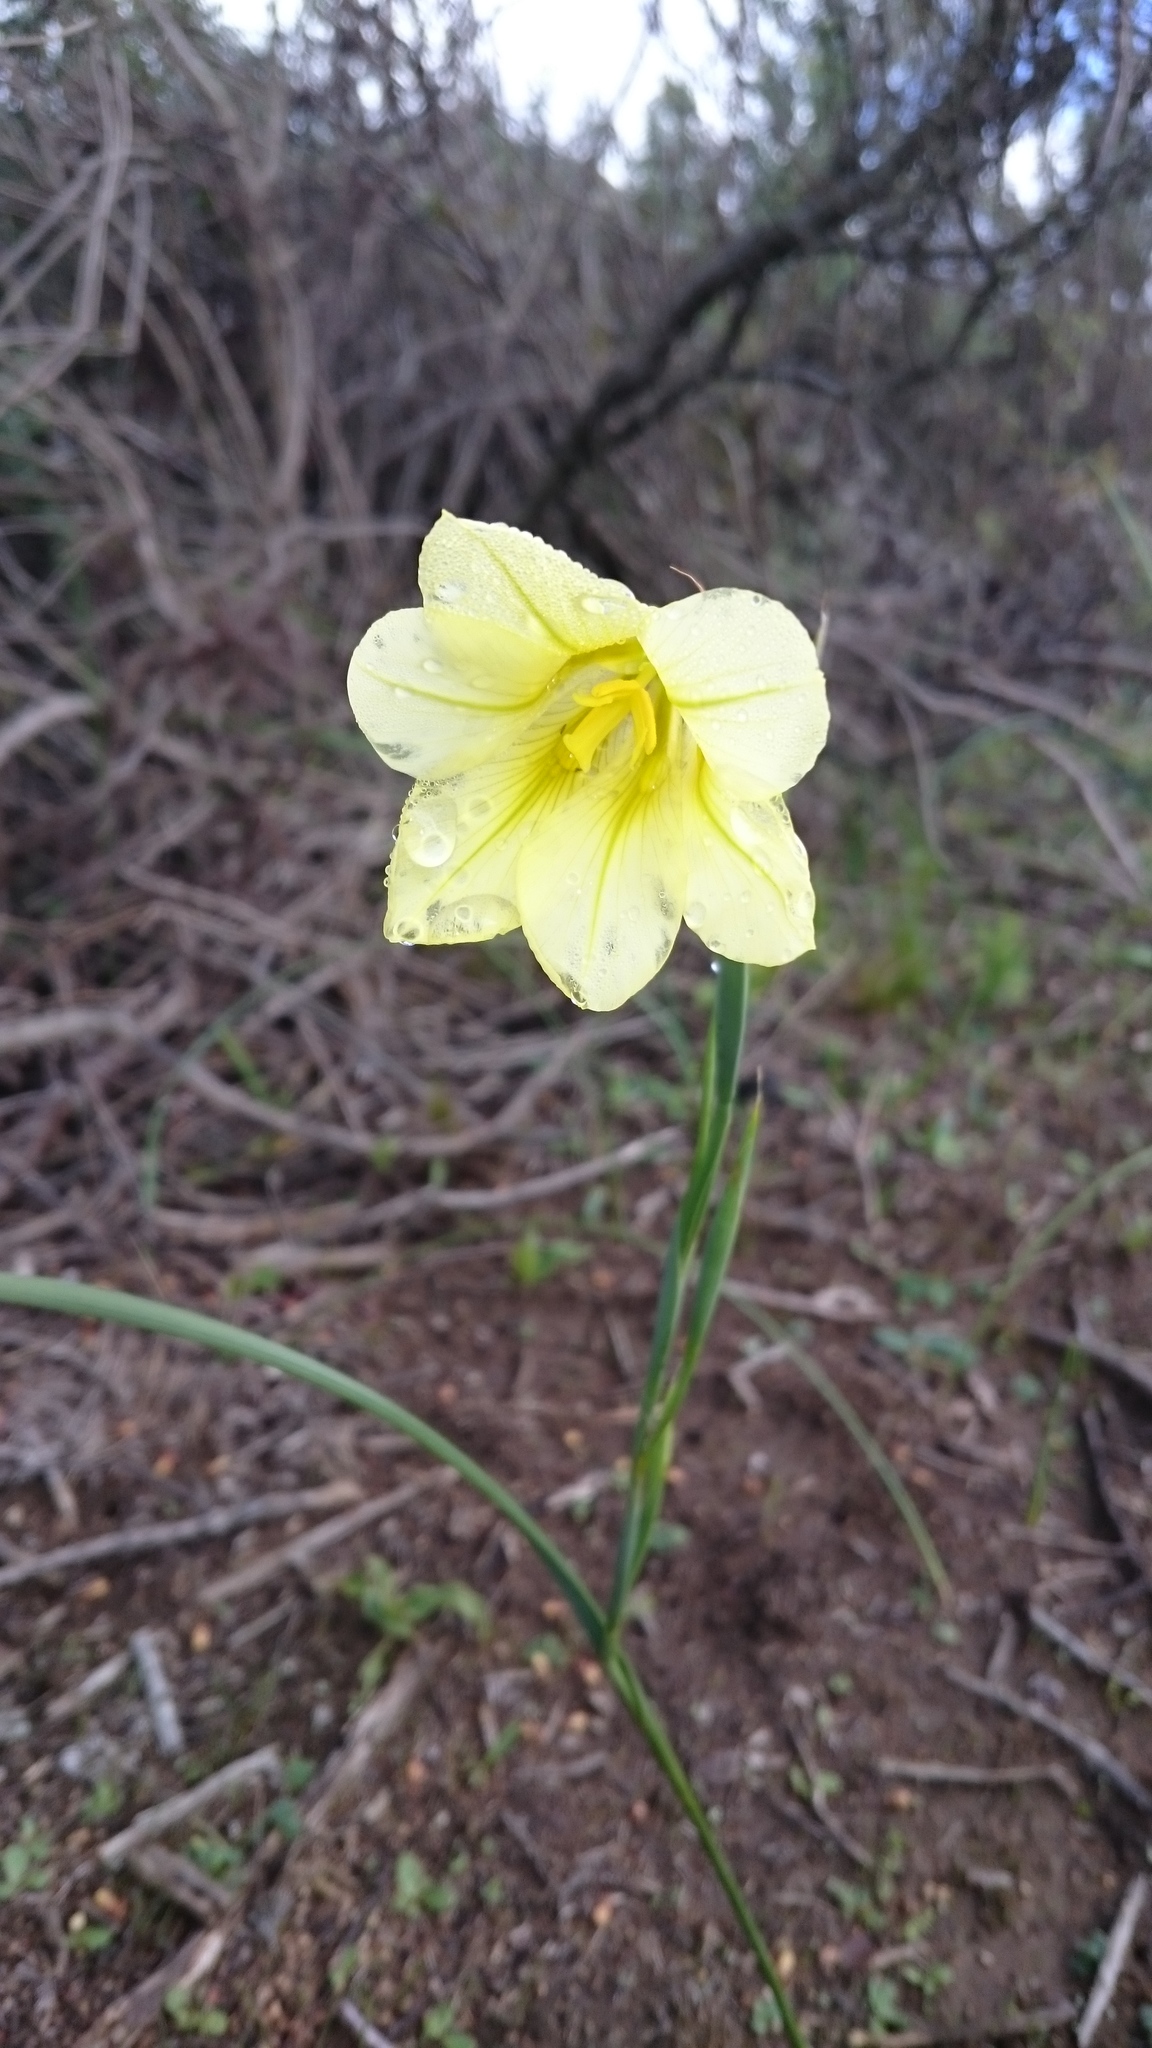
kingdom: Plantae
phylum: Tracheophyta
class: Liliopsida
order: Asparagales
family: Iridaceae
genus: Moraea
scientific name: Moraea ochroleuca
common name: Red tulp
